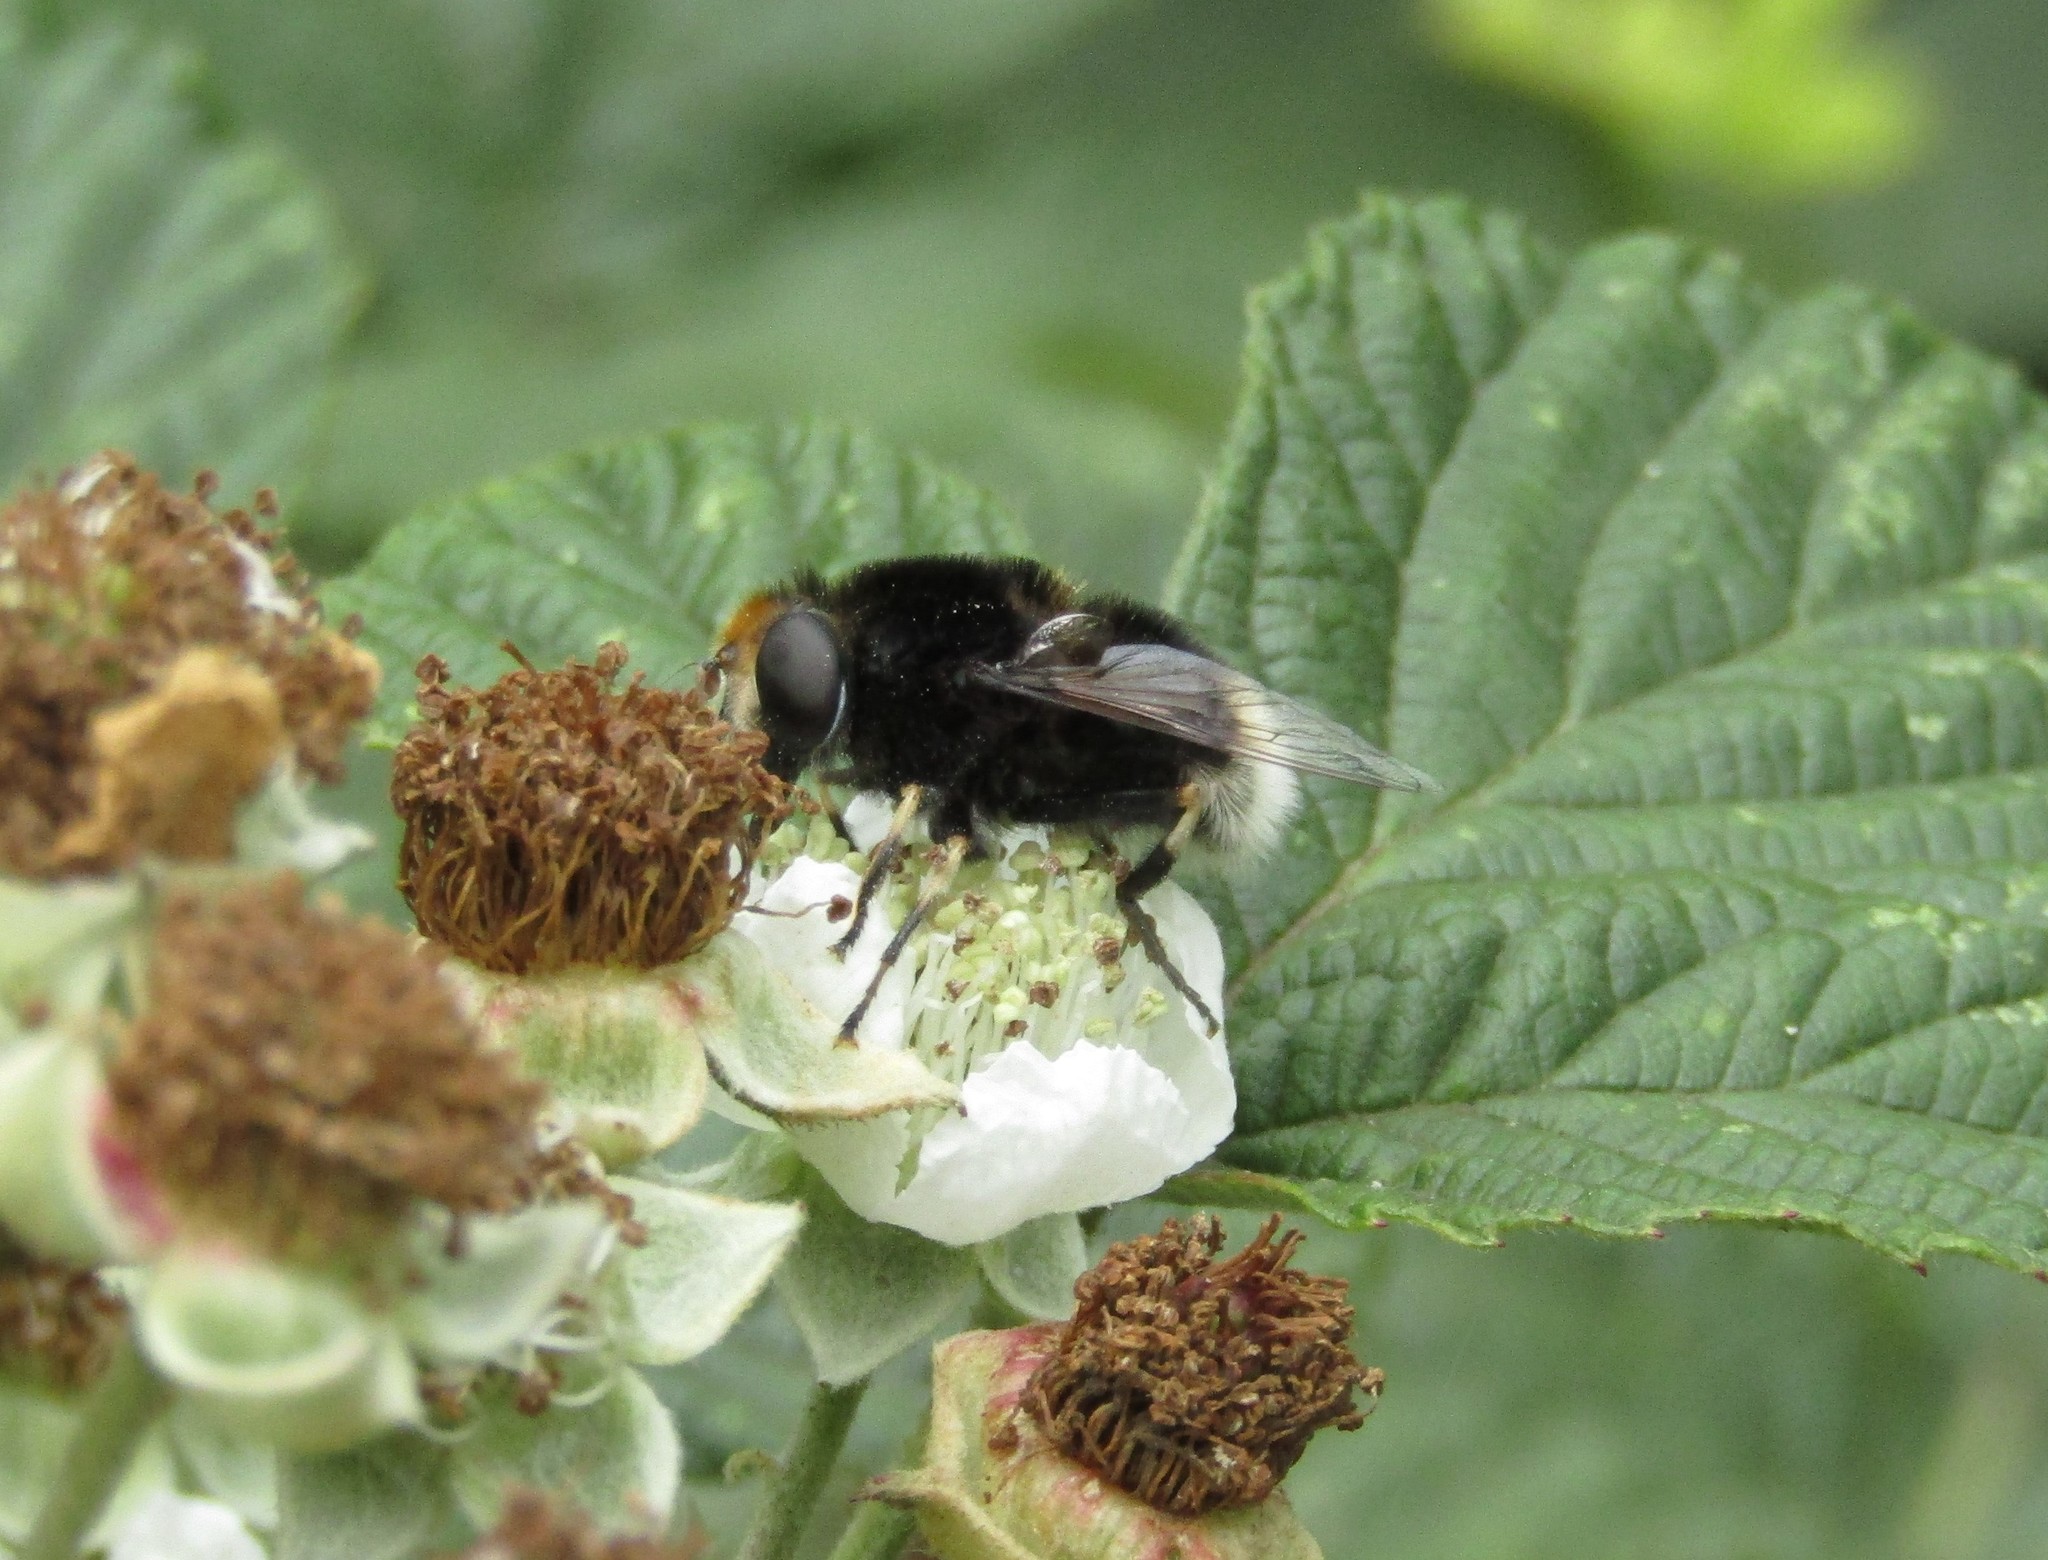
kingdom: Animalia
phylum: Arthropoda
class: Insecta
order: Diptera
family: Syrphidae
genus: Eristalis
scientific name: Eristalis intricaria
